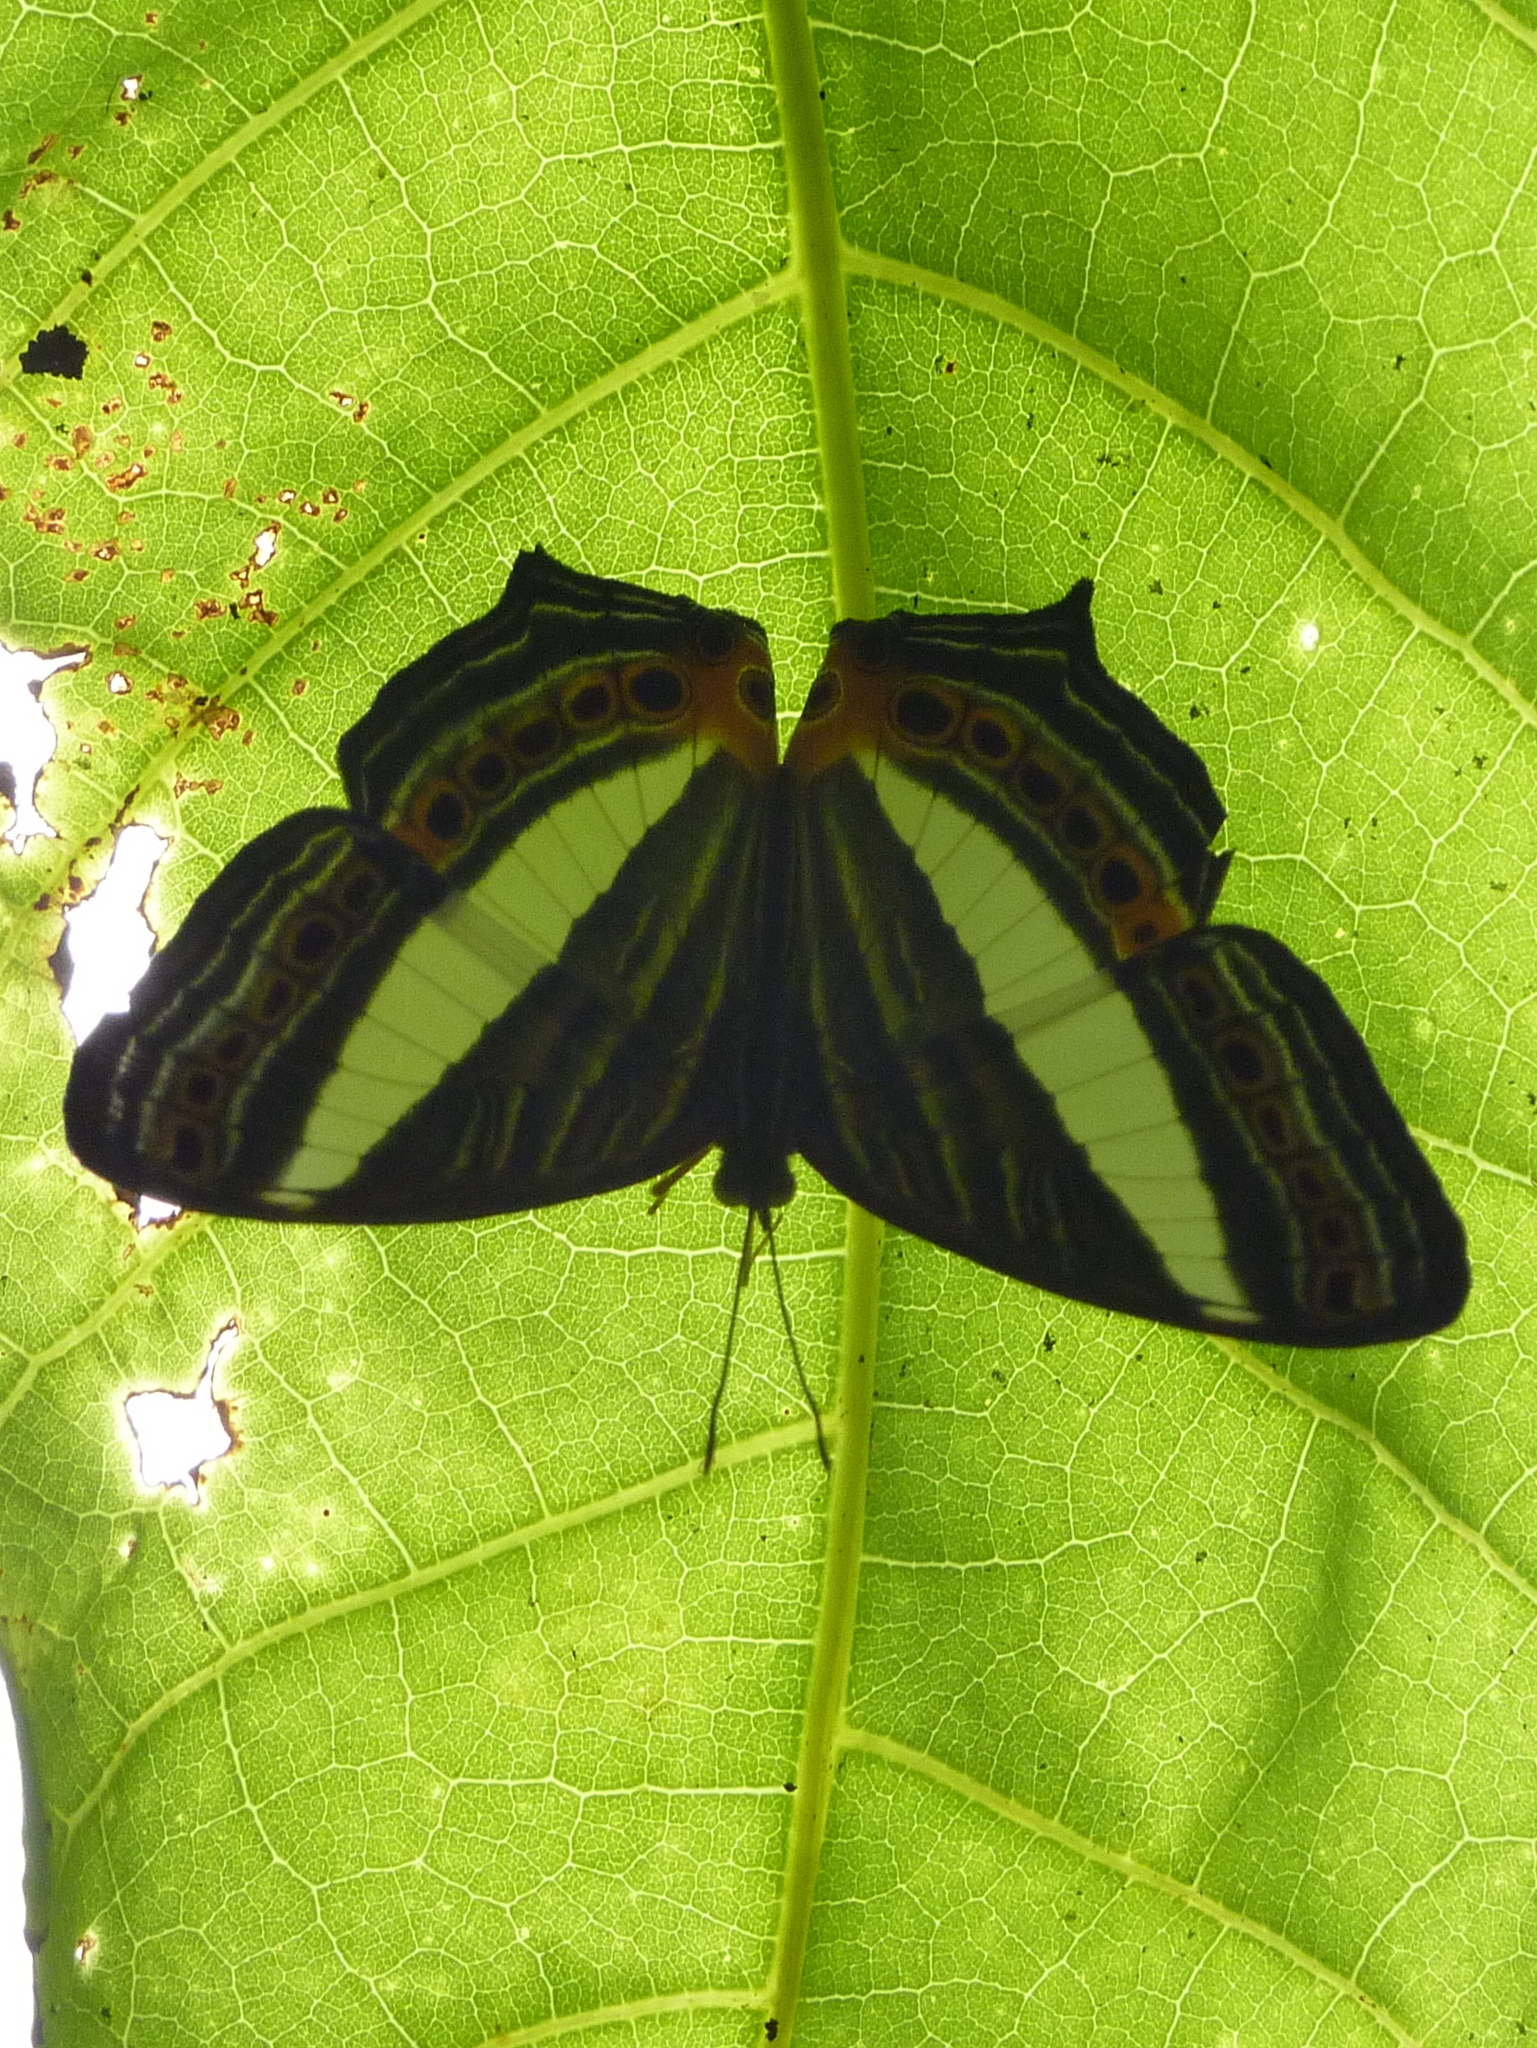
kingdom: Animalia
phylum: Arthropoda
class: Insecta
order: Lepidoptera
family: Nymphalidae
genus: Cyrestis
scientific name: Cyrestis acilia
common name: Godart's map butterfly
